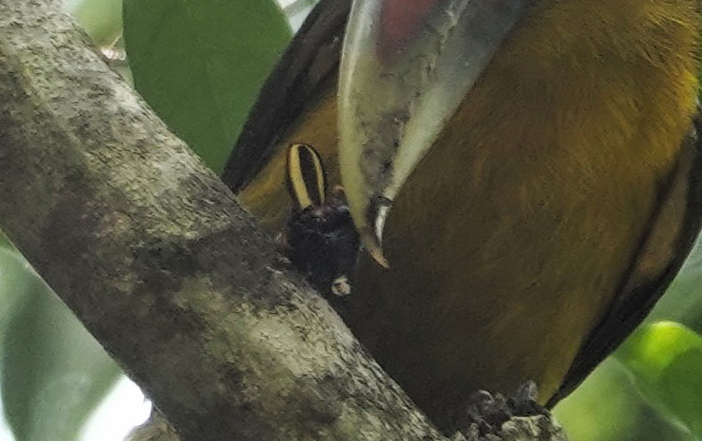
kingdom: Animalia
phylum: Arthropoda
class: Insecta
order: Coleoptera
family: Scarabaeidae
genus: Macraspis
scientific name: Macraspis cincta
